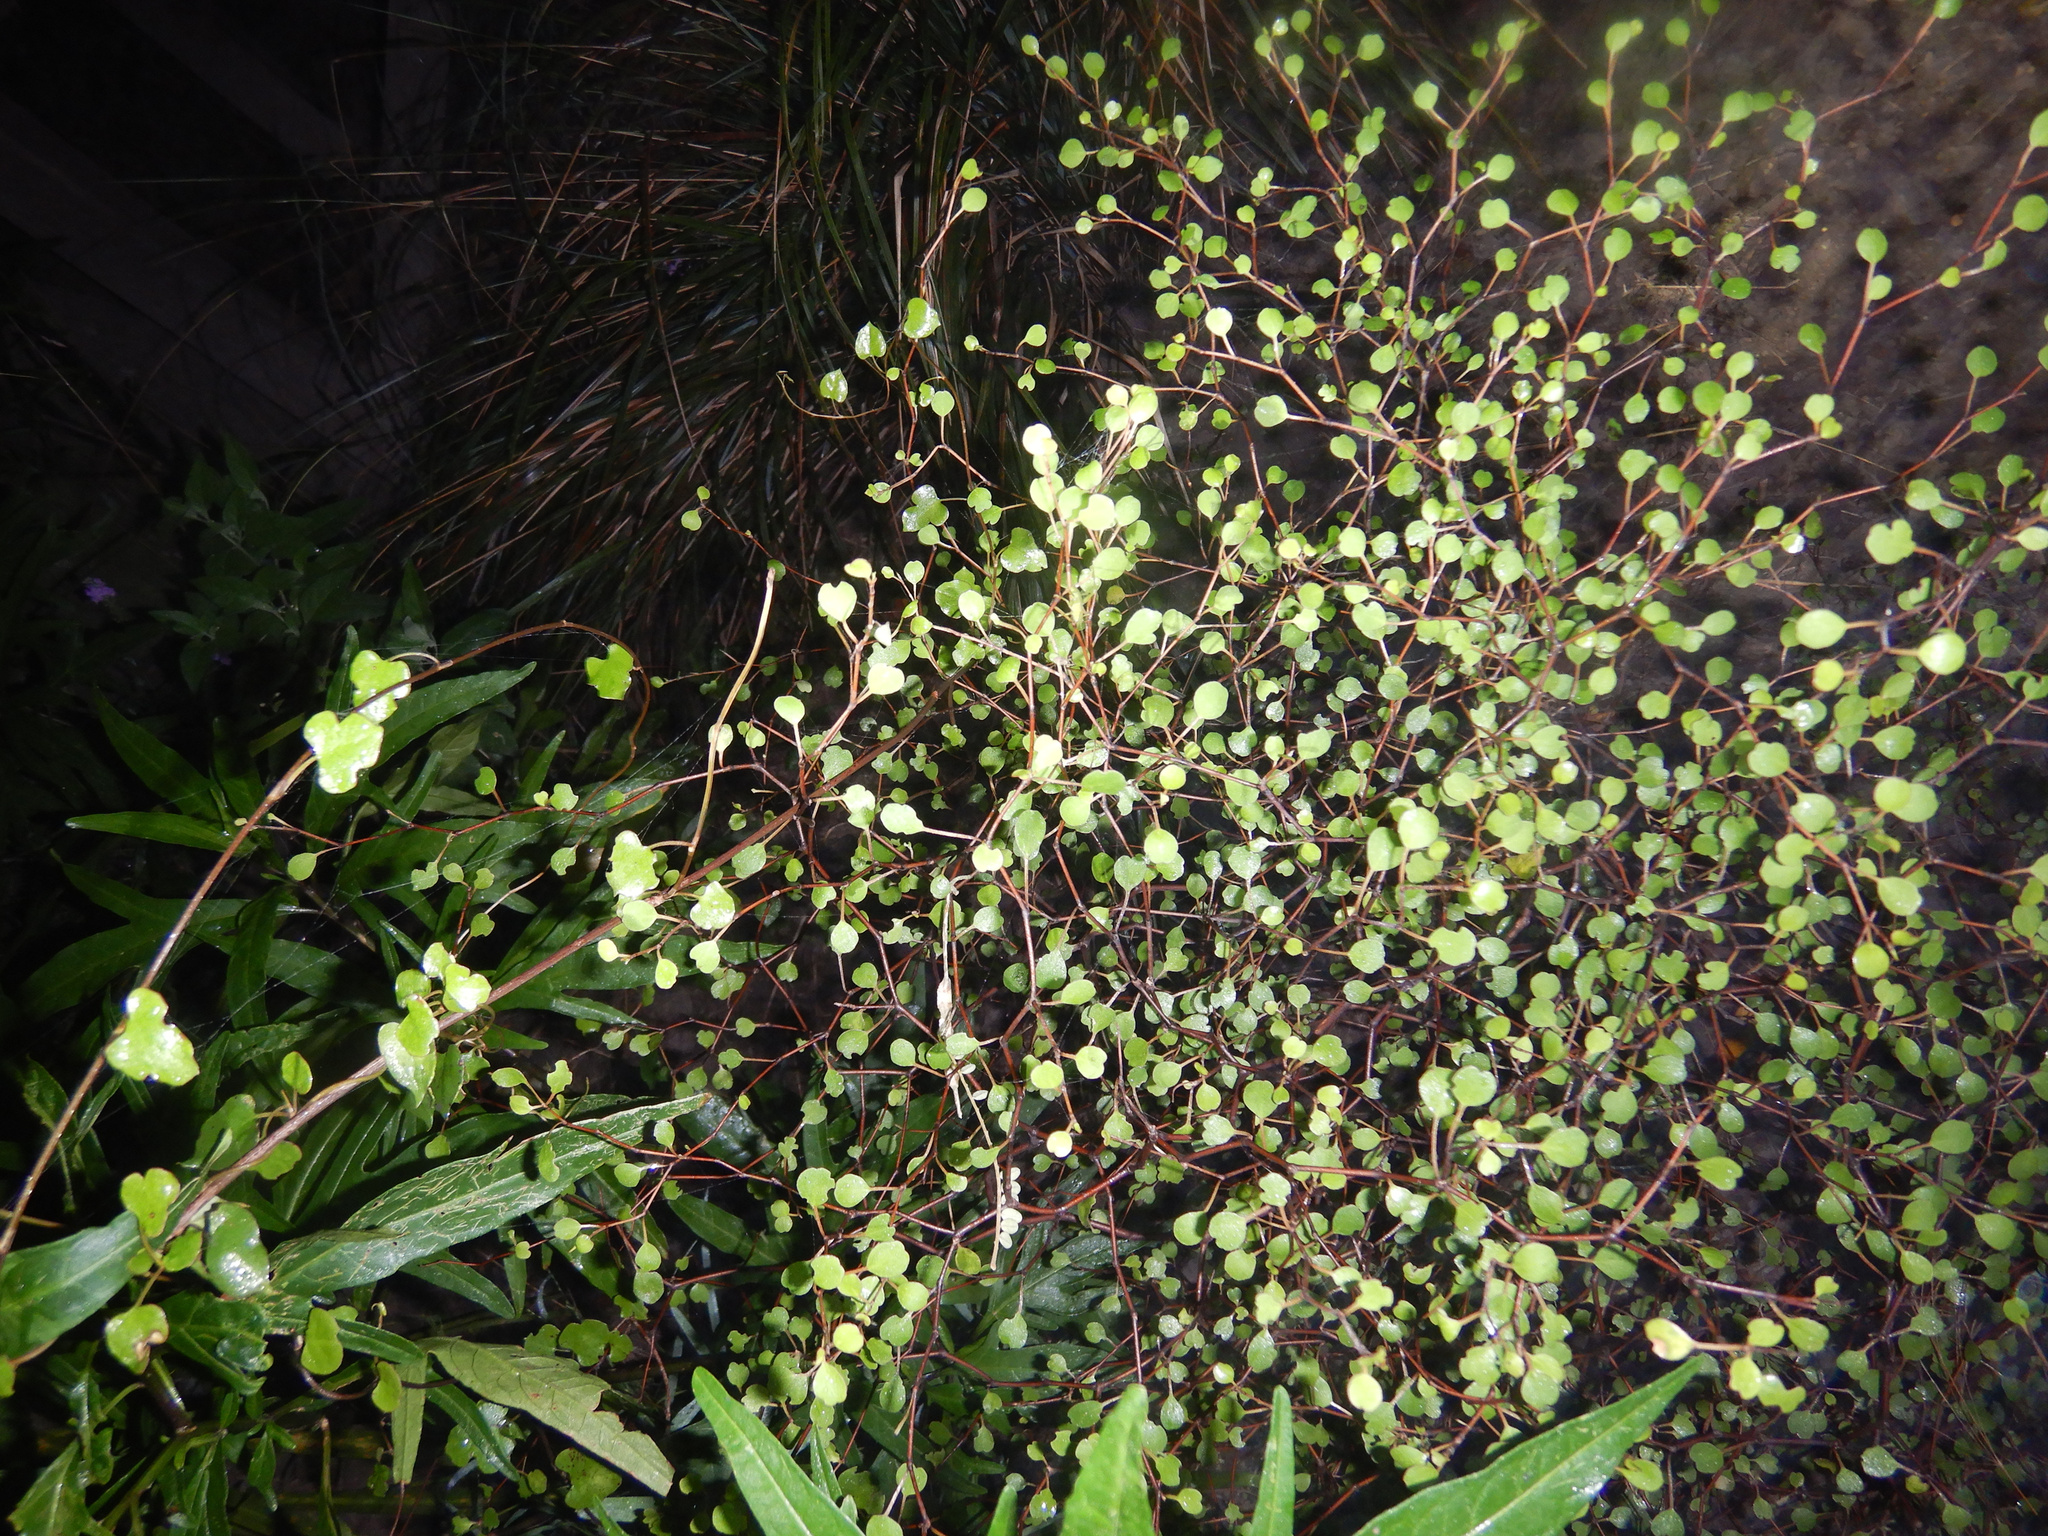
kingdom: Plantae
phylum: Tracheophyta
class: Magnoliopsida
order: Caryophyllales
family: Polygonaceae
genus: Muehlenbeckia
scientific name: Muehlenbeckia astonii
